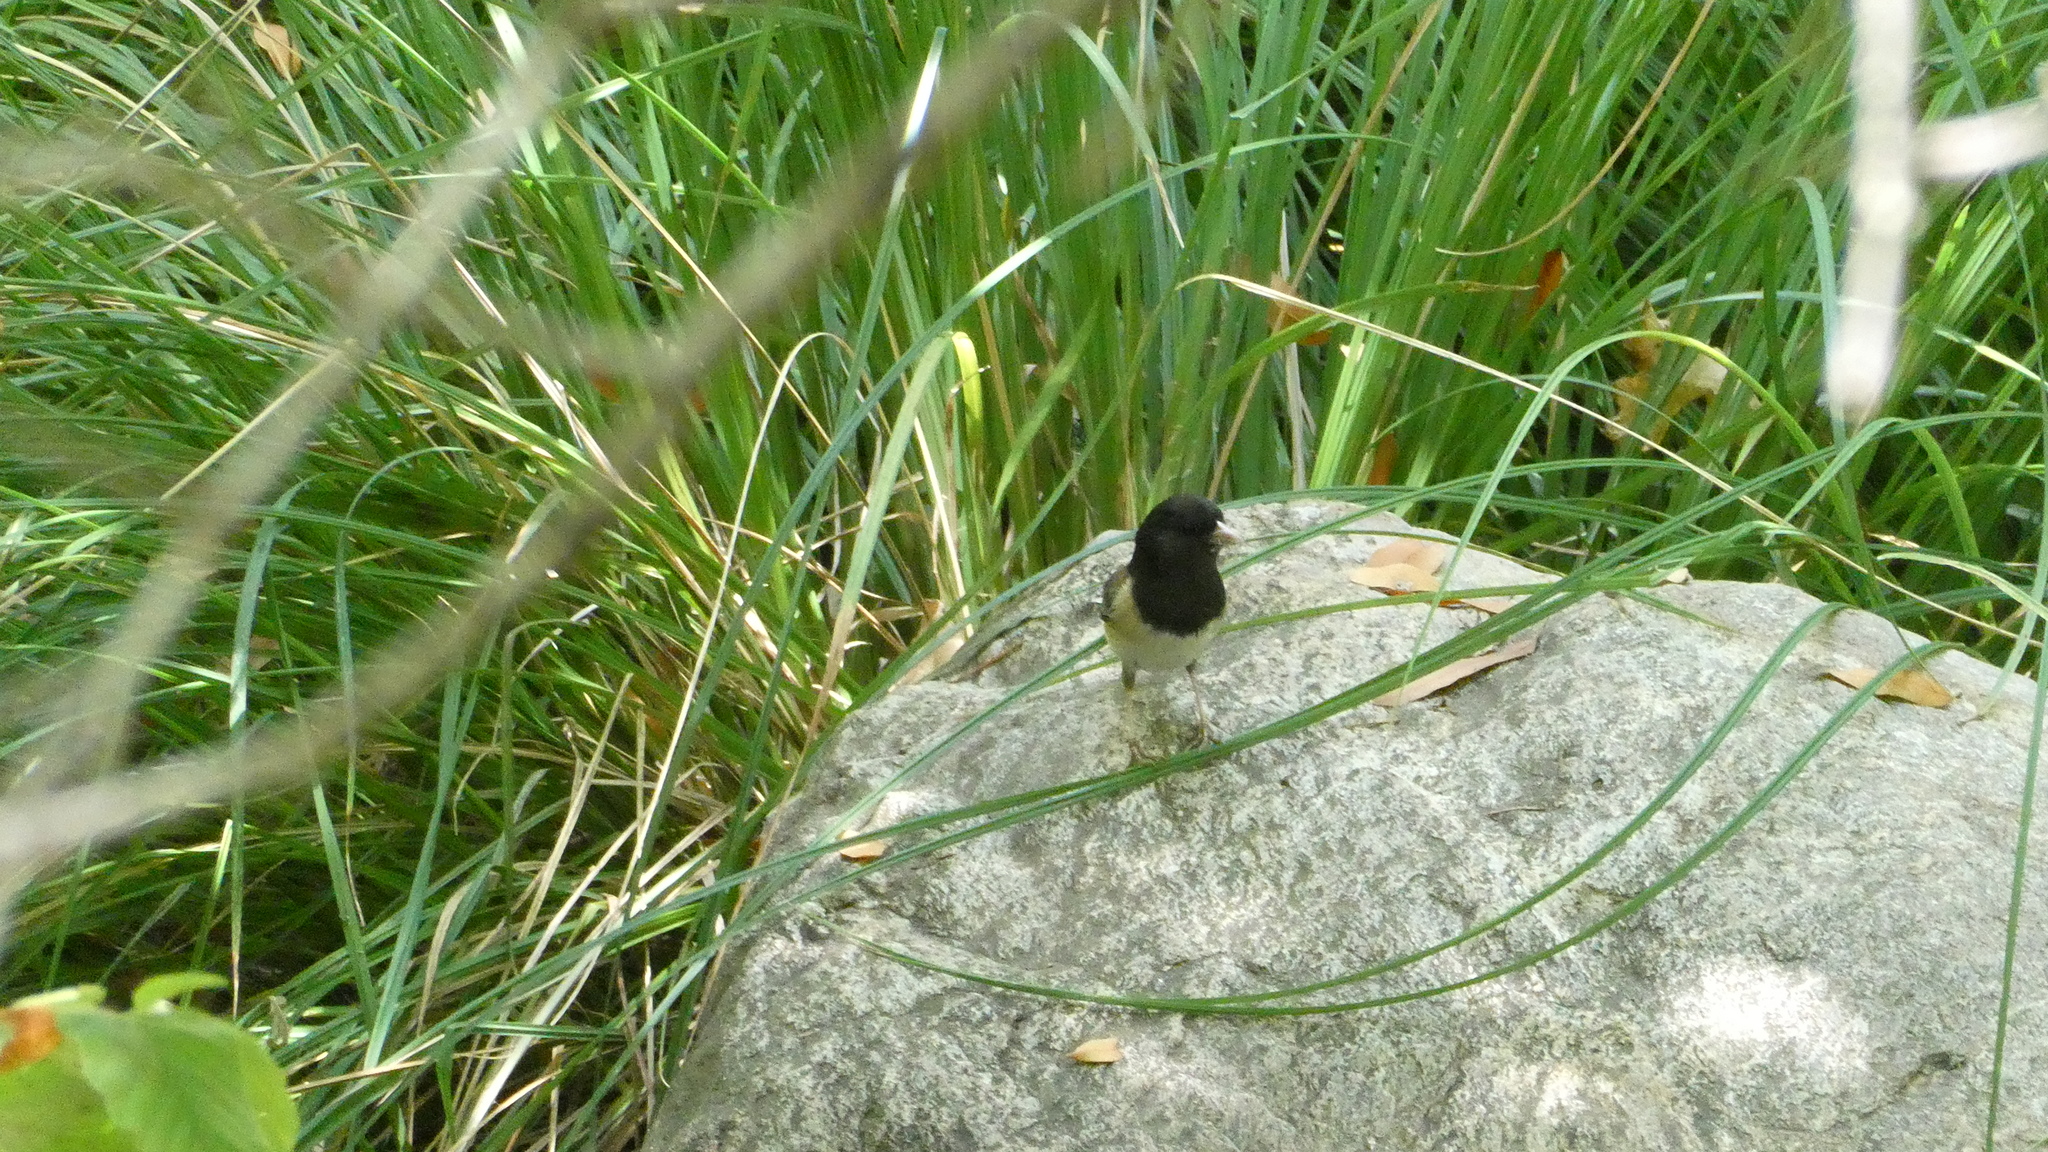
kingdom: Animalia
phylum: Chordata
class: Aves
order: Passeriformes
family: Passerellidae
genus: Junco
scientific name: Junco hyemalis
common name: Dark-eyed junco
